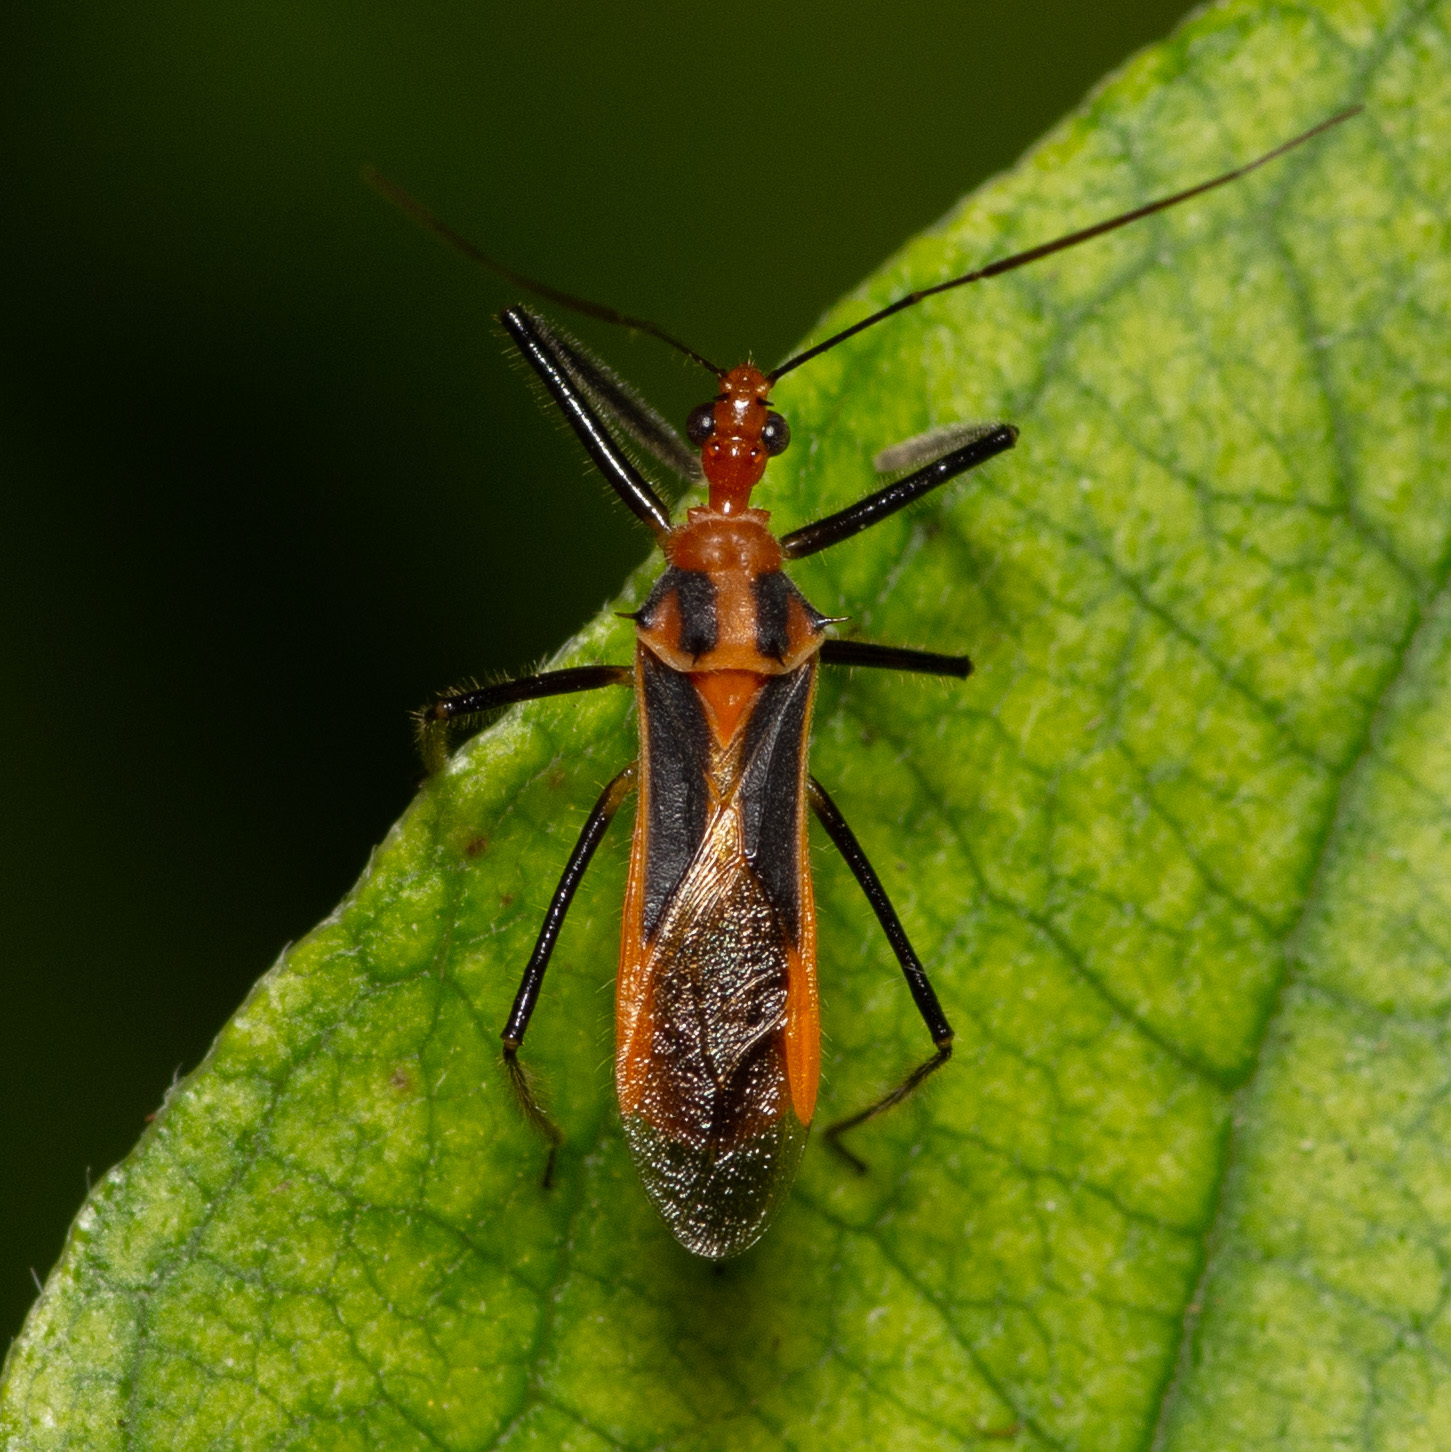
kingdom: Animalia
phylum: Arthropoda
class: Insecta
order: Hemiptera
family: Reduviidae
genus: Repipta
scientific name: Repipta taurus
